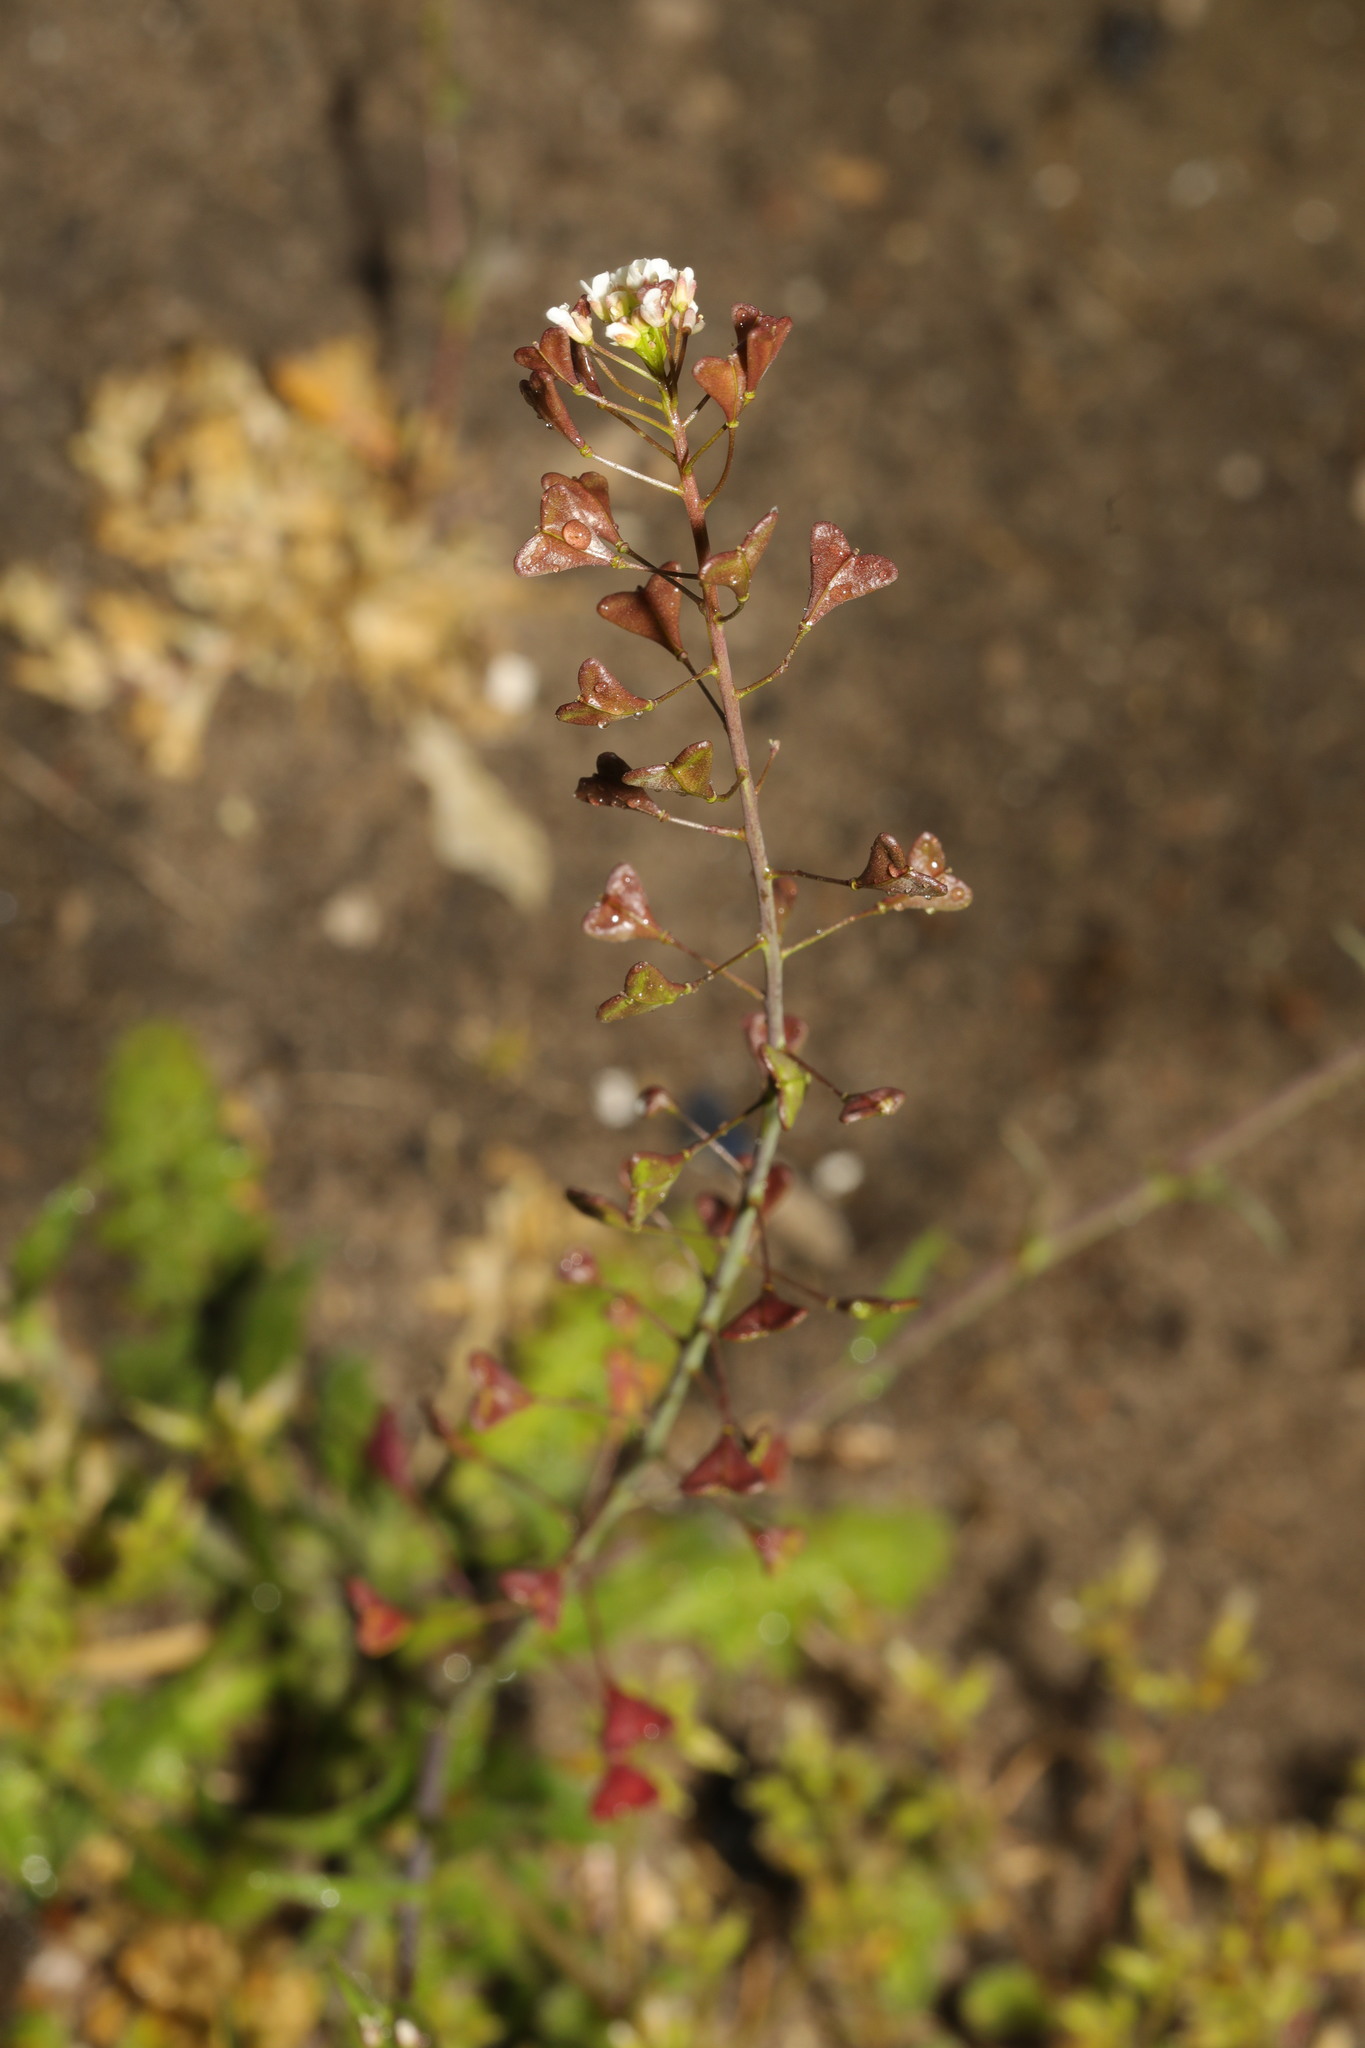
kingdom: Plantae
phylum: Tracheophyta
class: Magnoliopsida
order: Brassicales
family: Brassicaceae
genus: Capsella
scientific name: Capsella bursa-pastoris
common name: Shepherd's purse
